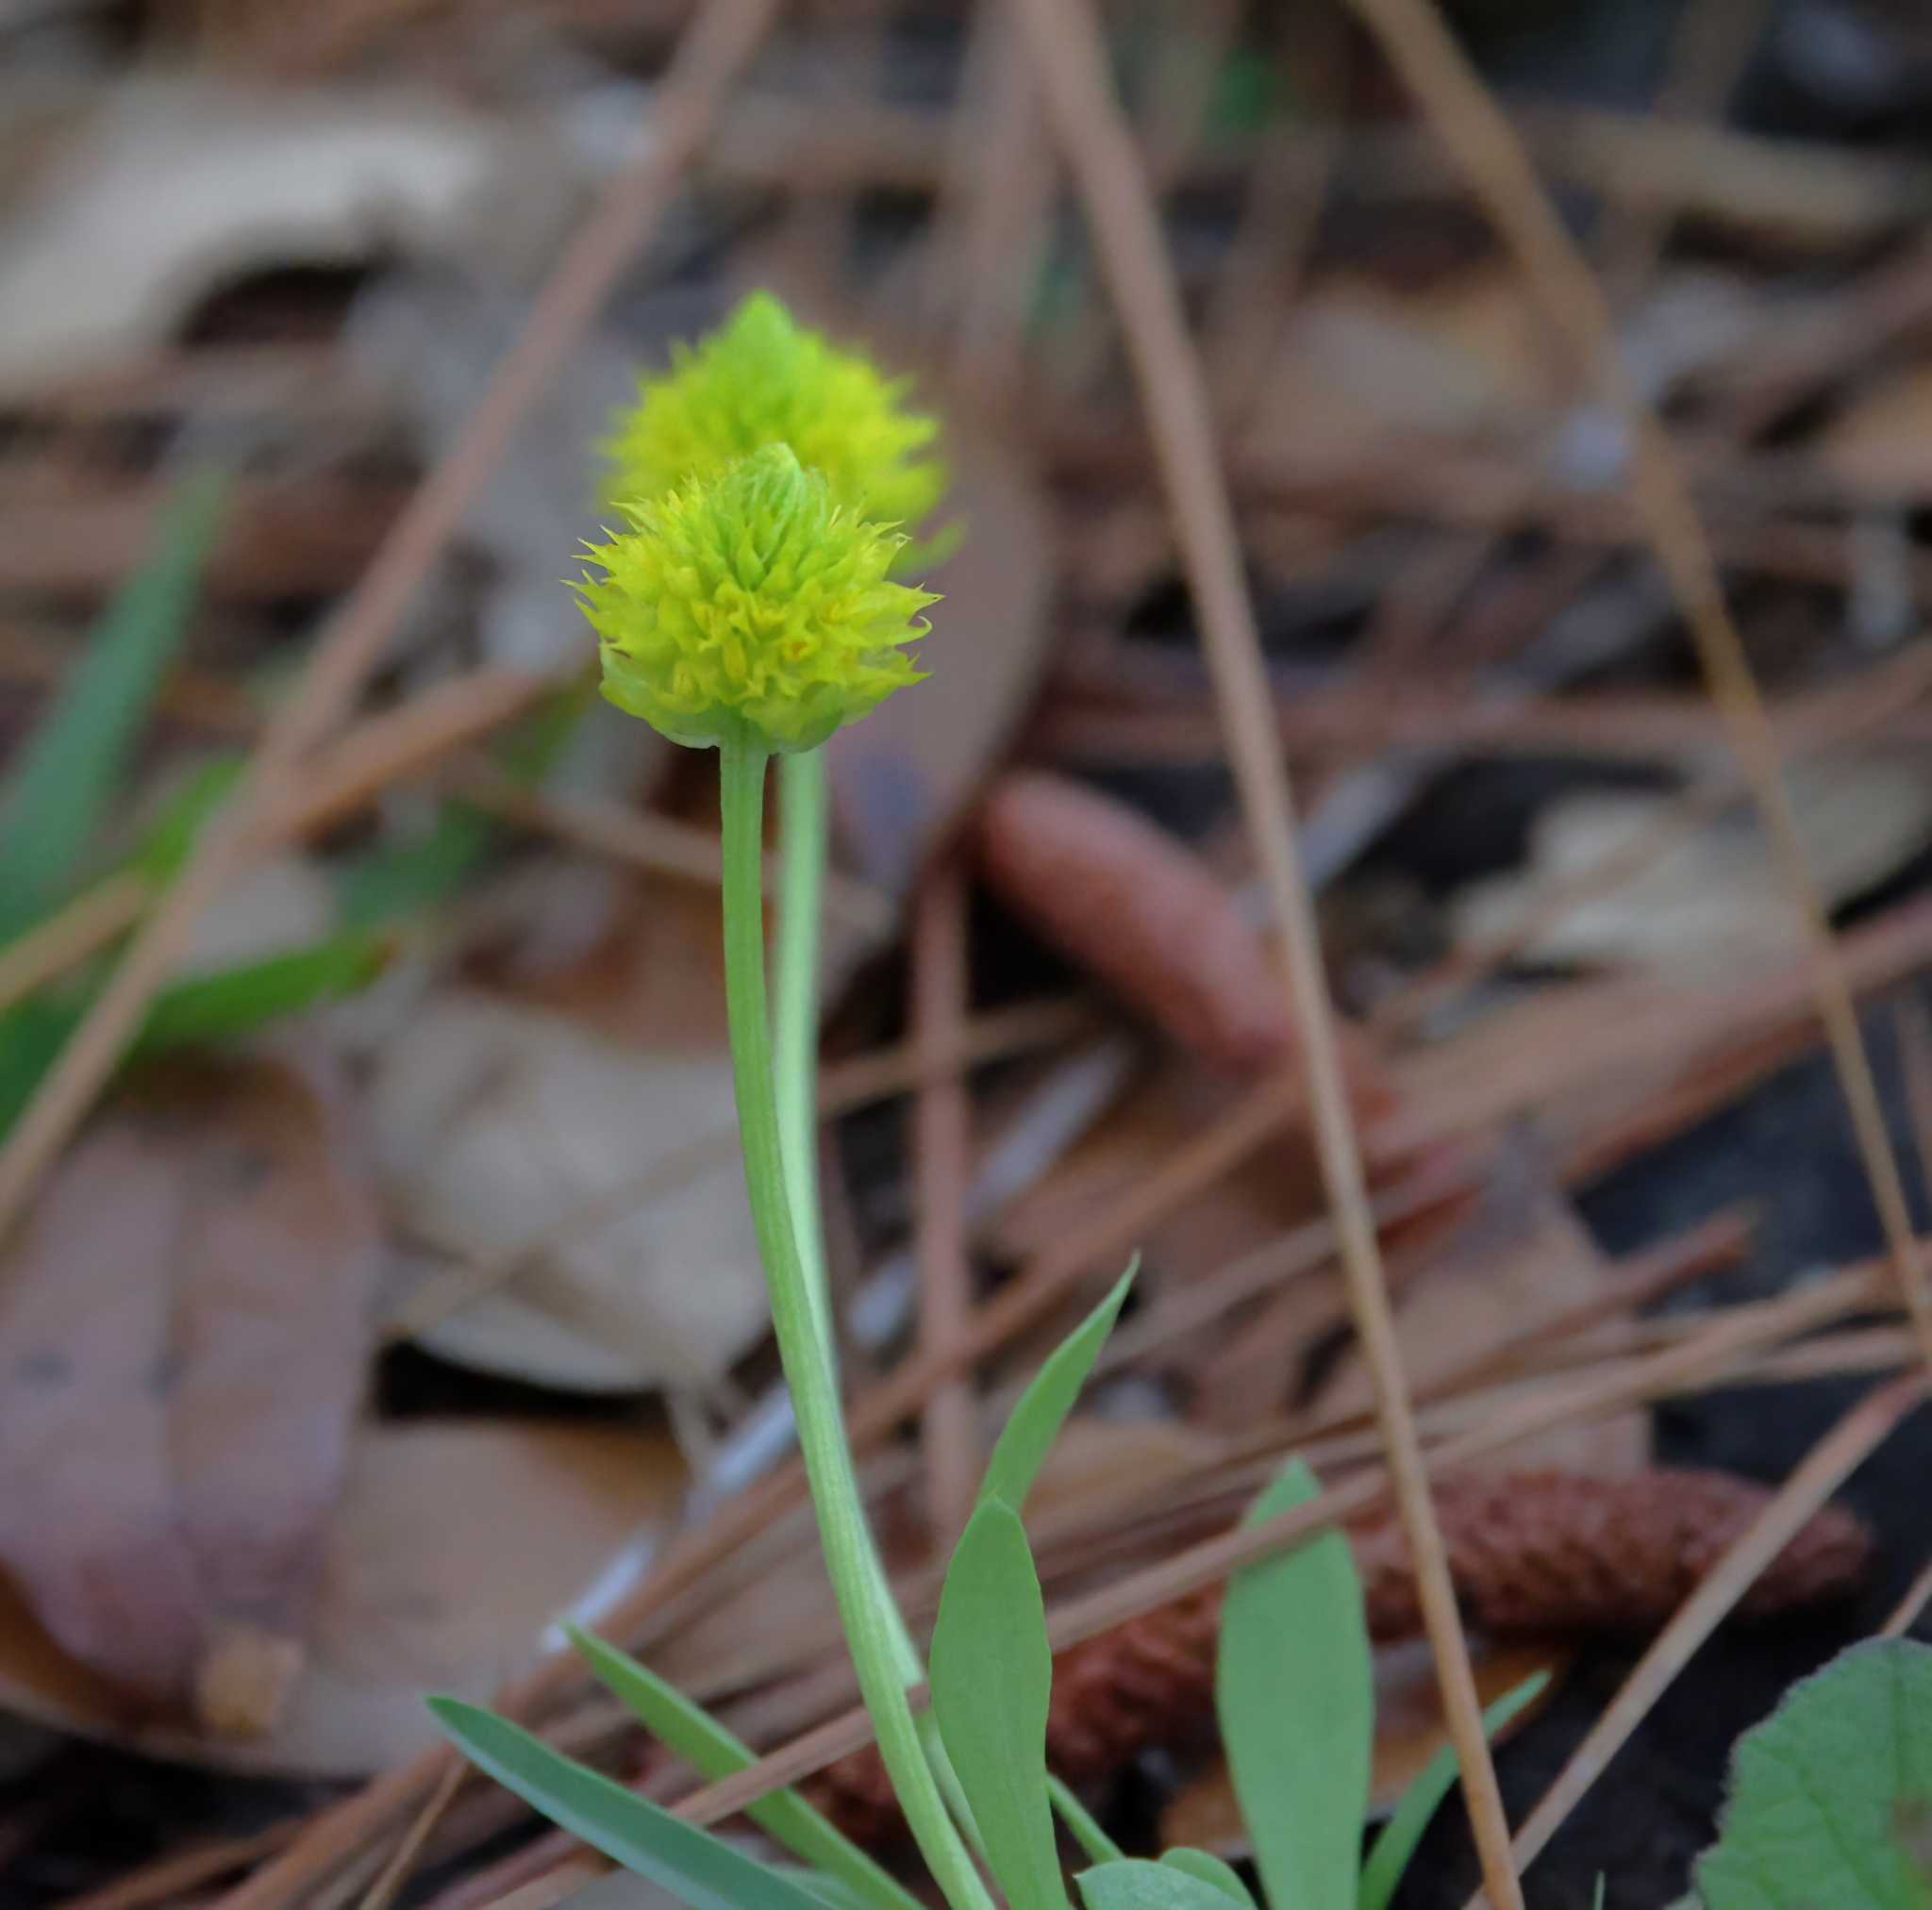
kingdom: Plantae
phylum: Tracheophyta
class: Magnoliopsida
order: Fabales
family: Polygalaceae
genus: Polygala
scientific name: Polygala nana
